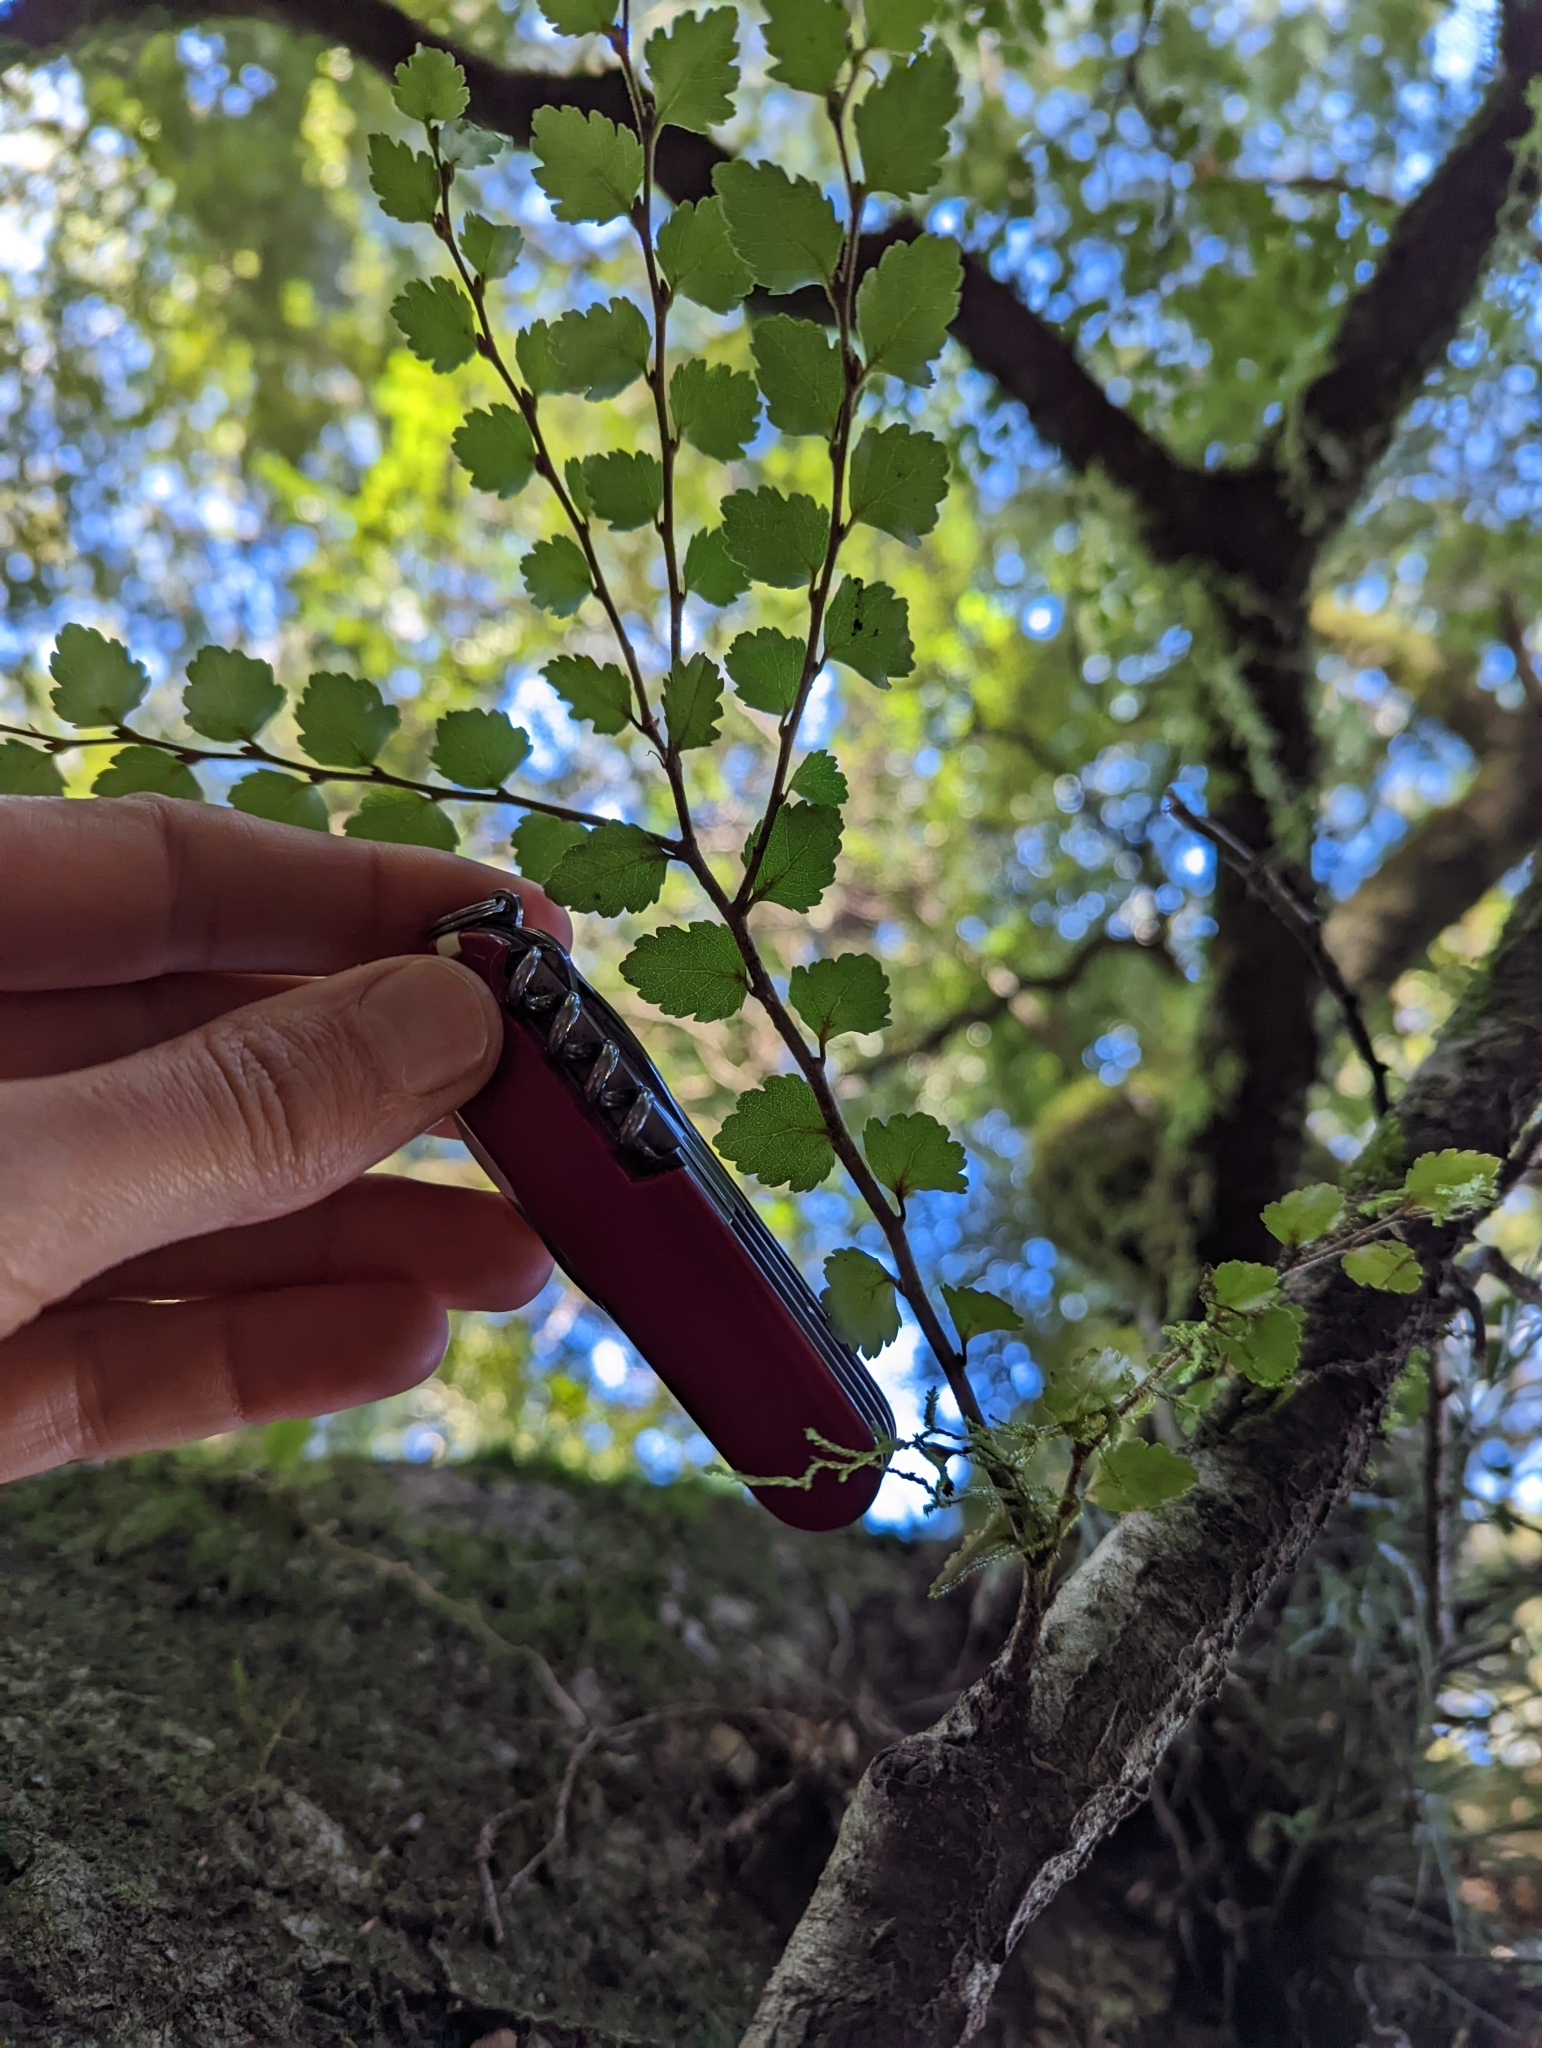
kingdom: Fungi
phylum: Basidiomycota
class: Agaricomycetes
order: Agaricales
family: Pleurotaceae
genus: Pleurotus
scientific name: Pleurotus purpureo-olivaceus
